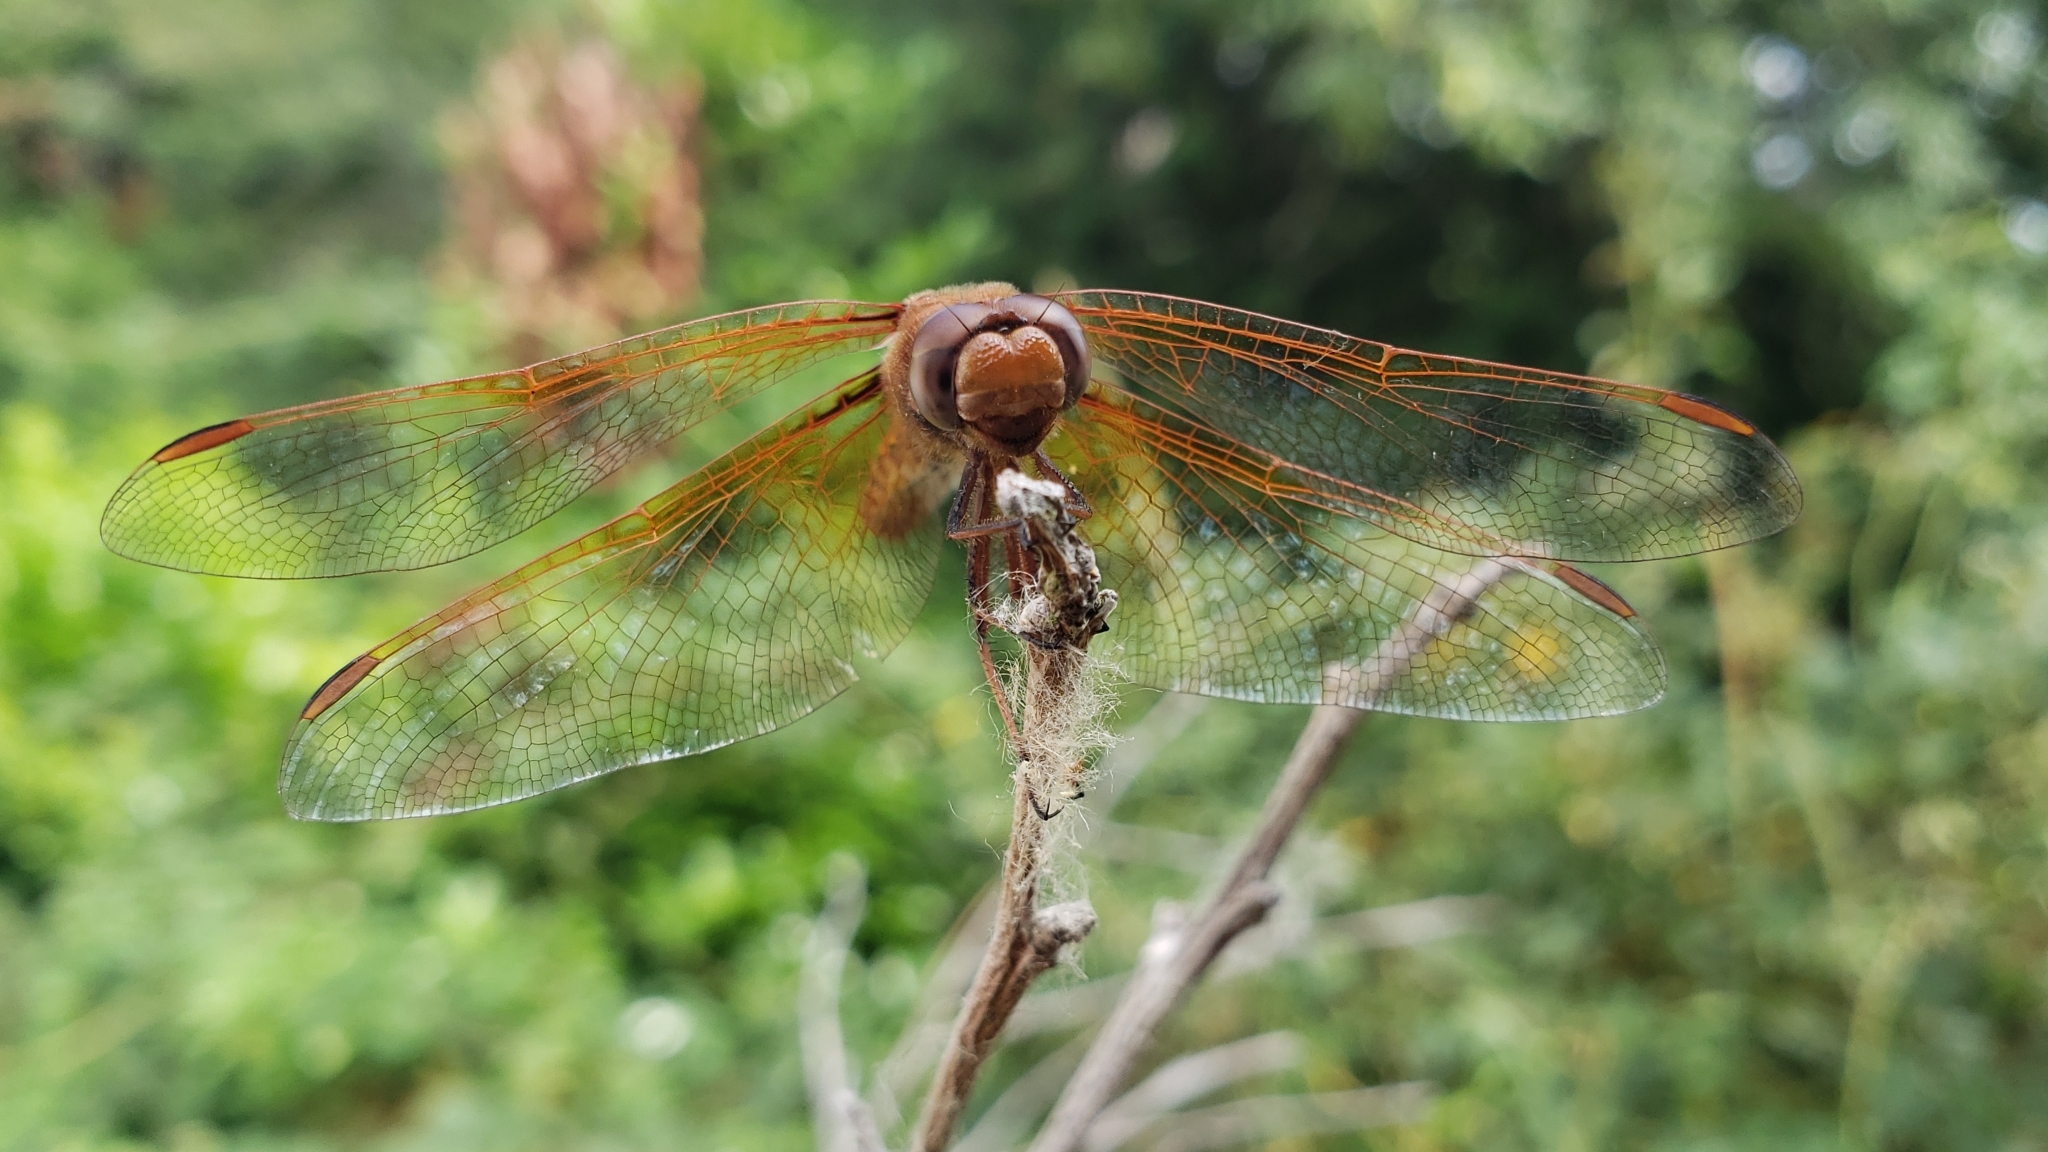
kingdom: Animalia
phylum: Arthropoda
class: Insecta
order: Odonata
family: Libellulidae
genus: Sympetrum
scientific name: Sympetrum illotum
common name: Cardinal meadowhawk
